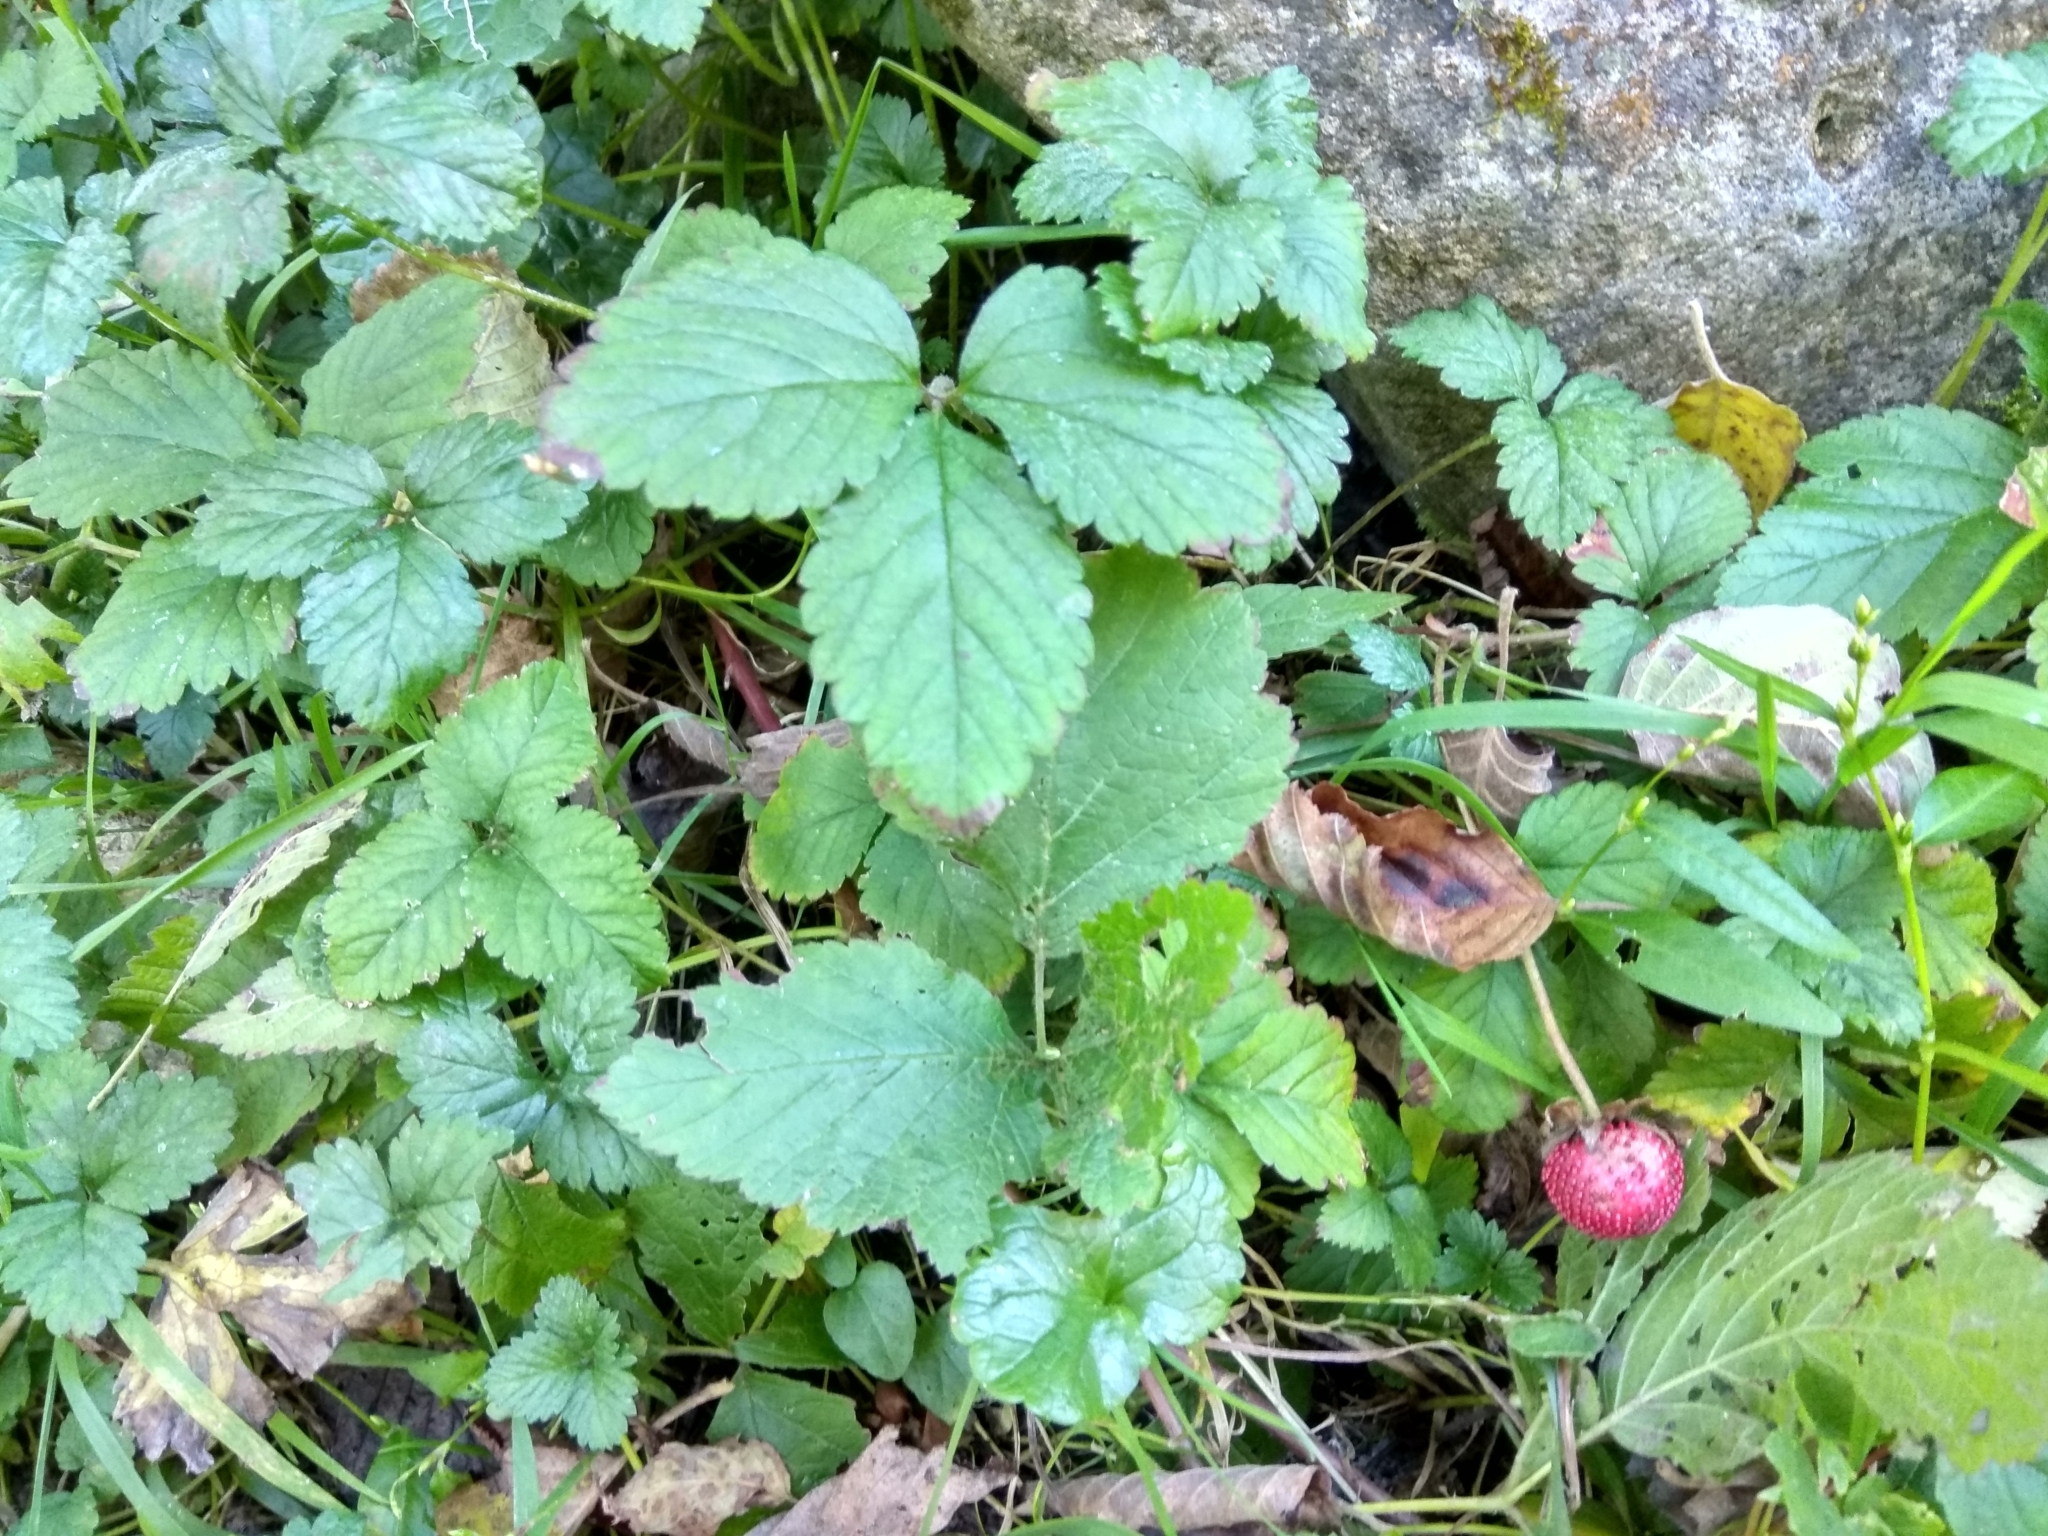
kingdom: Plantae
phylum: Tracheophyta
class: Magnoliopsida
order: Rosales
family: Rosaceae
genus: Potentilla
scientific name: Potentilla indica
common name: Yellow-flowered strawberry
